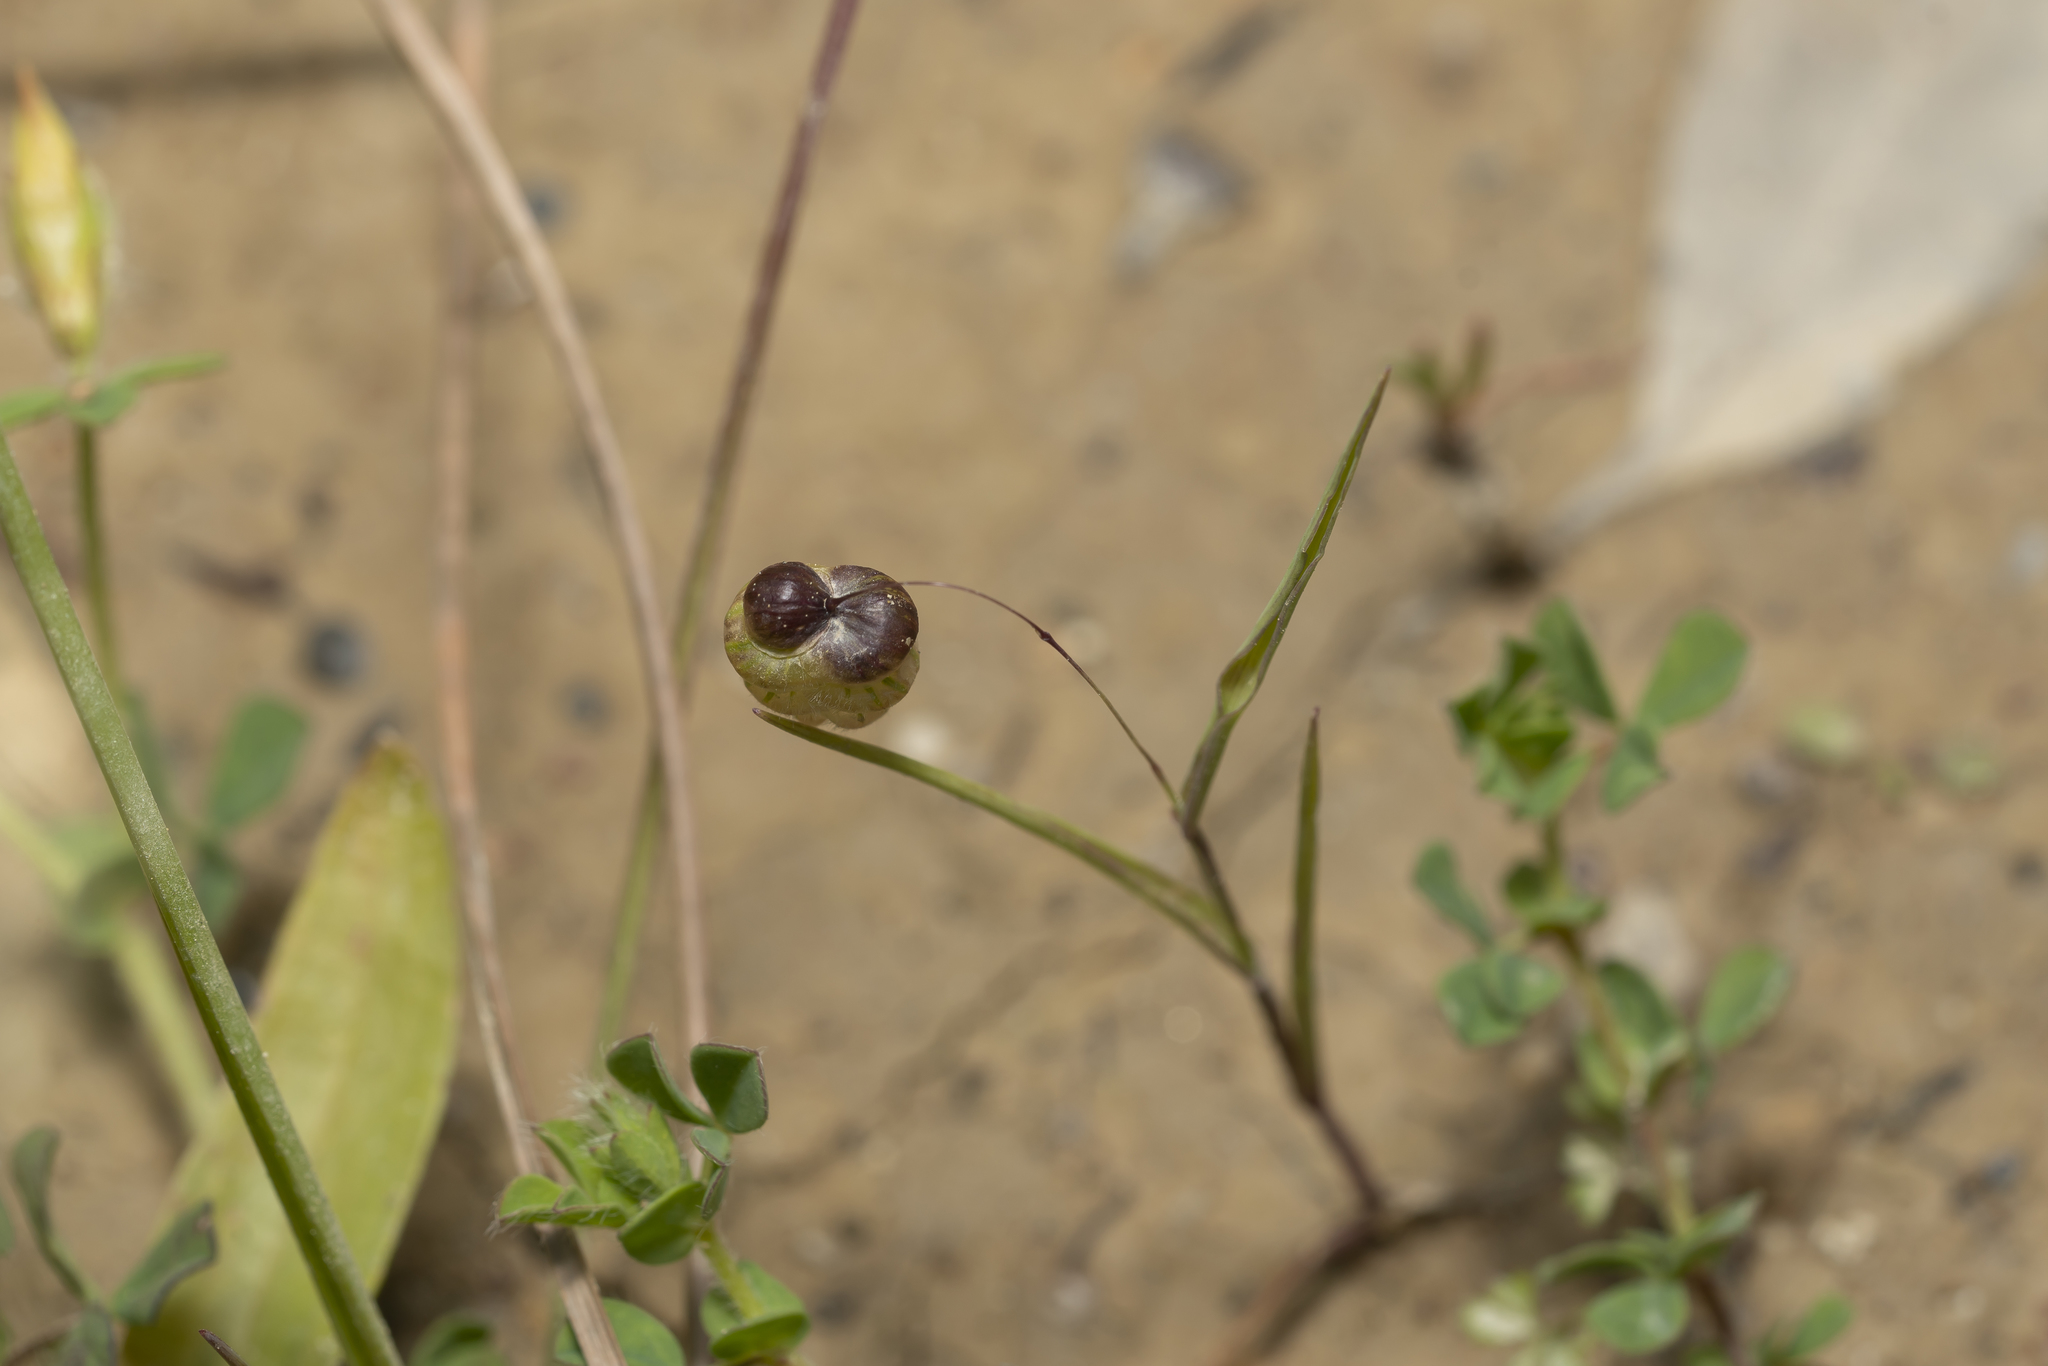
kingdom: Plantae
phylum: Tracheophyta
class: Liliopsida
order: Poales
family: Poaceae
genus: Briza
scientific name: Briza maxima
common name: Big quakinggrass
